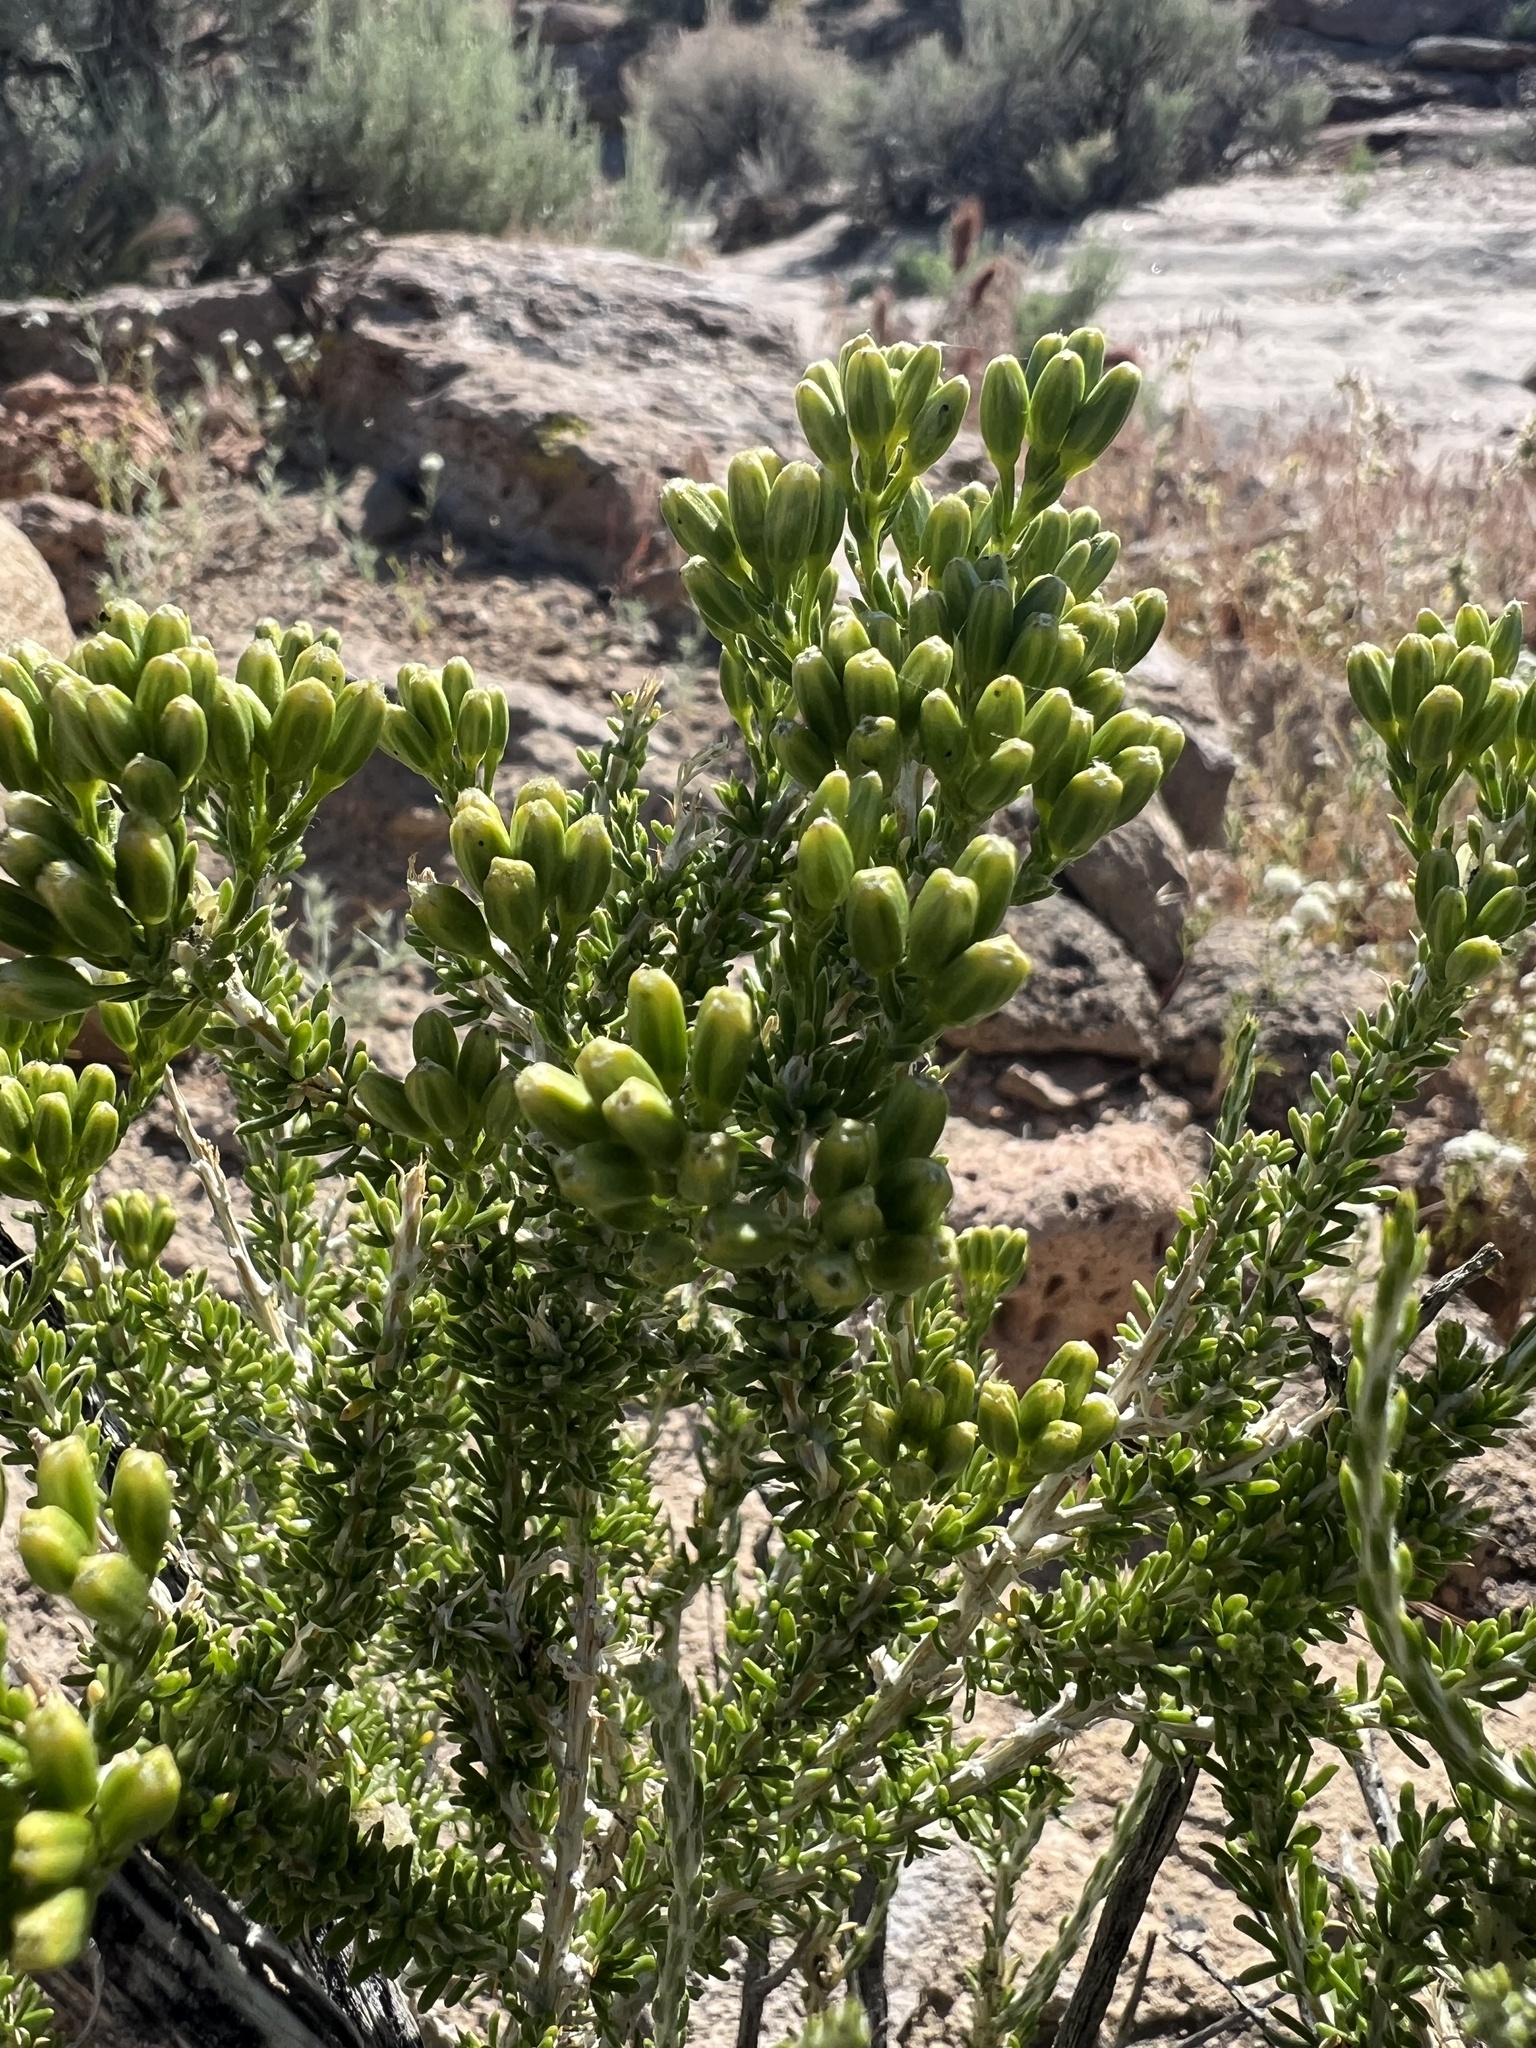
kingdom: Plantae
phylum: Tracheophyta
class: Magnoliopsida
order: Asterales
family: Asteraceae
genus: Tetradymia
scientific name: Tetradymia glabrata
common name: Smooth tetradymia
